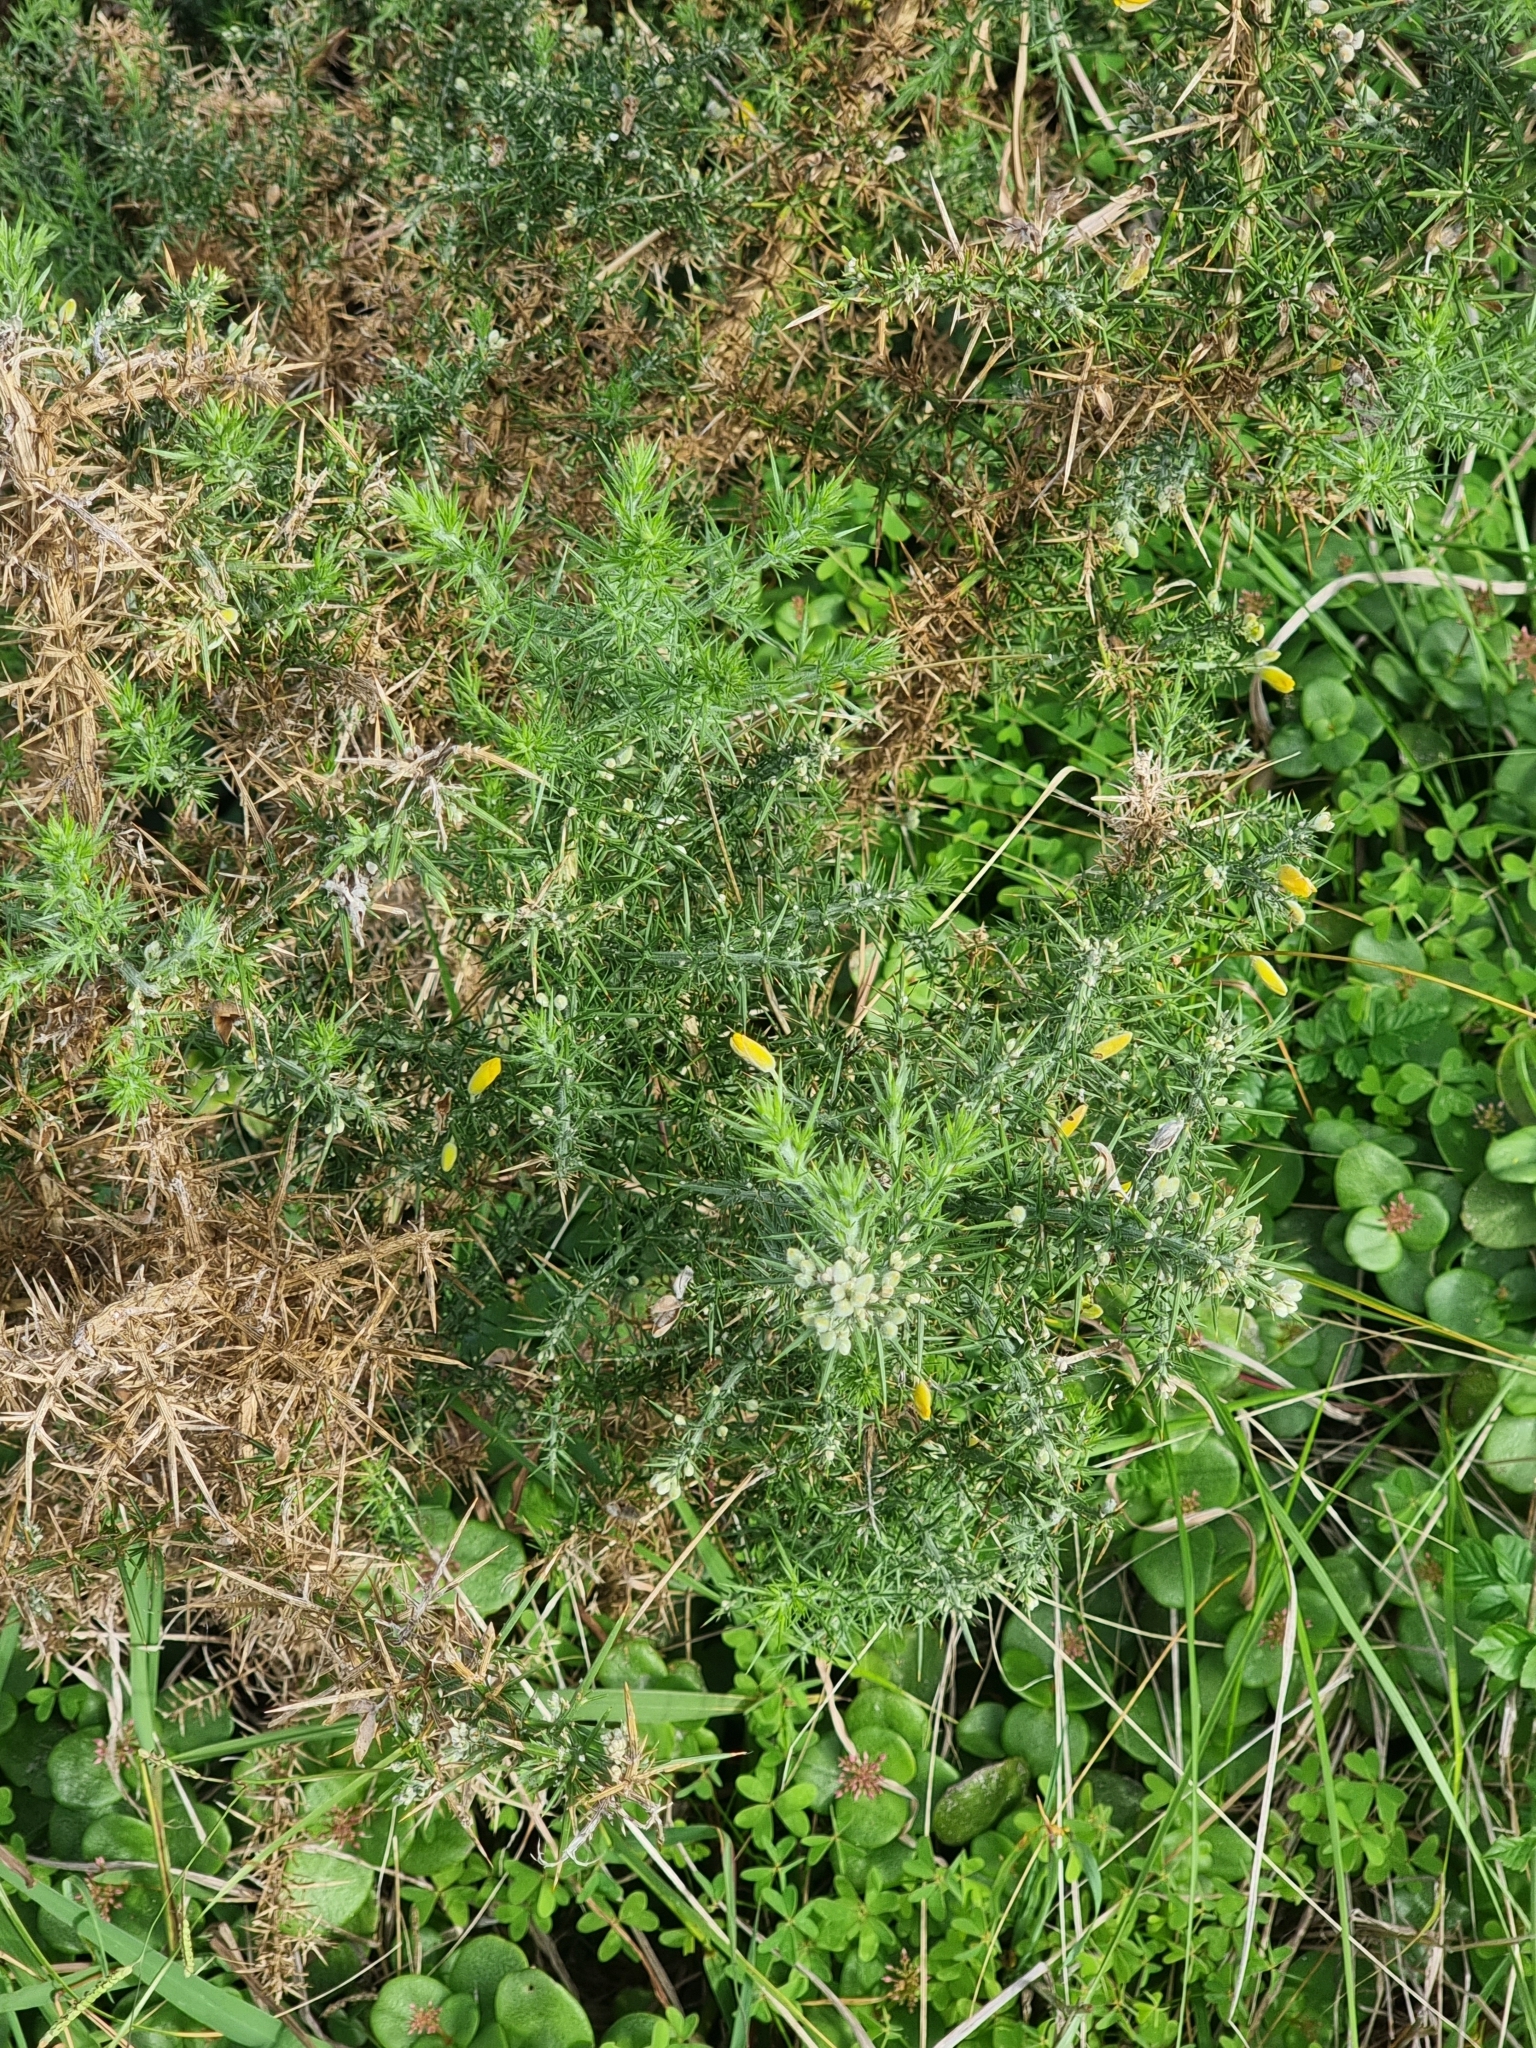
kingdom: Plantae
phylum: Tracheophyta
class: Magnoliopsida
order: Fabales
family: Fabaceae
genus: Ulex
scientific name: Ulex europaeus
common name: Common gorse
